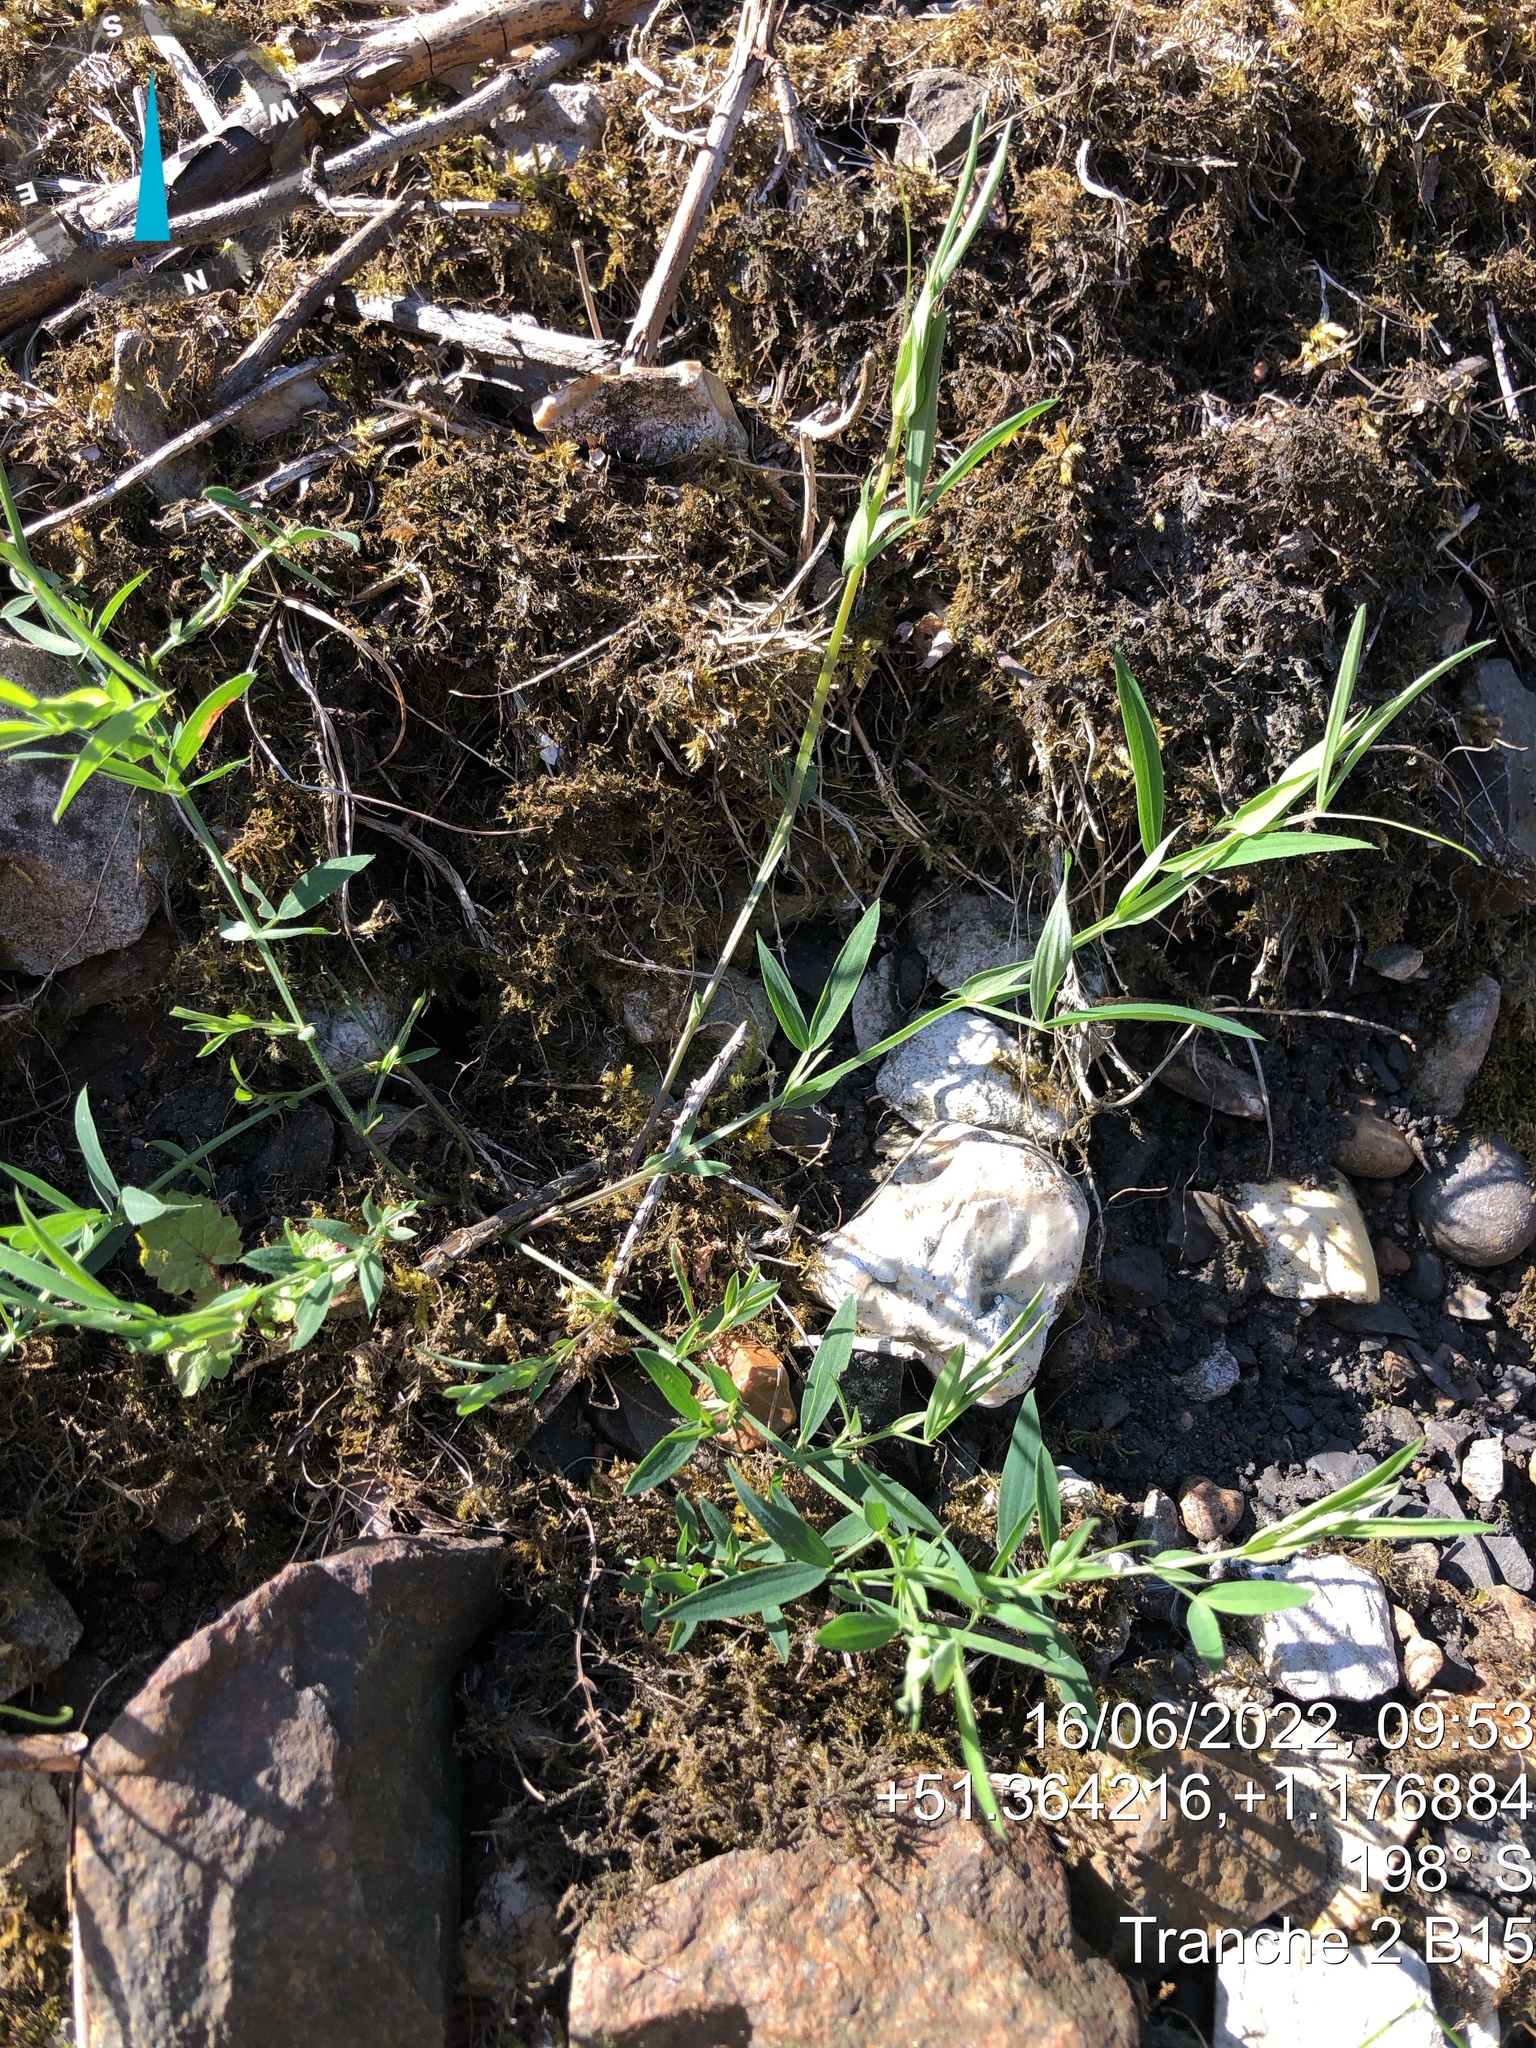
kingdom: Plantae
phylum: Tracheophyta
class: Magnoliopsida
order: Fabales
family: Fabaceae
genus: Lathyrus
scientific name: Lathyrus pratensis
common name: Meadow vetchling
